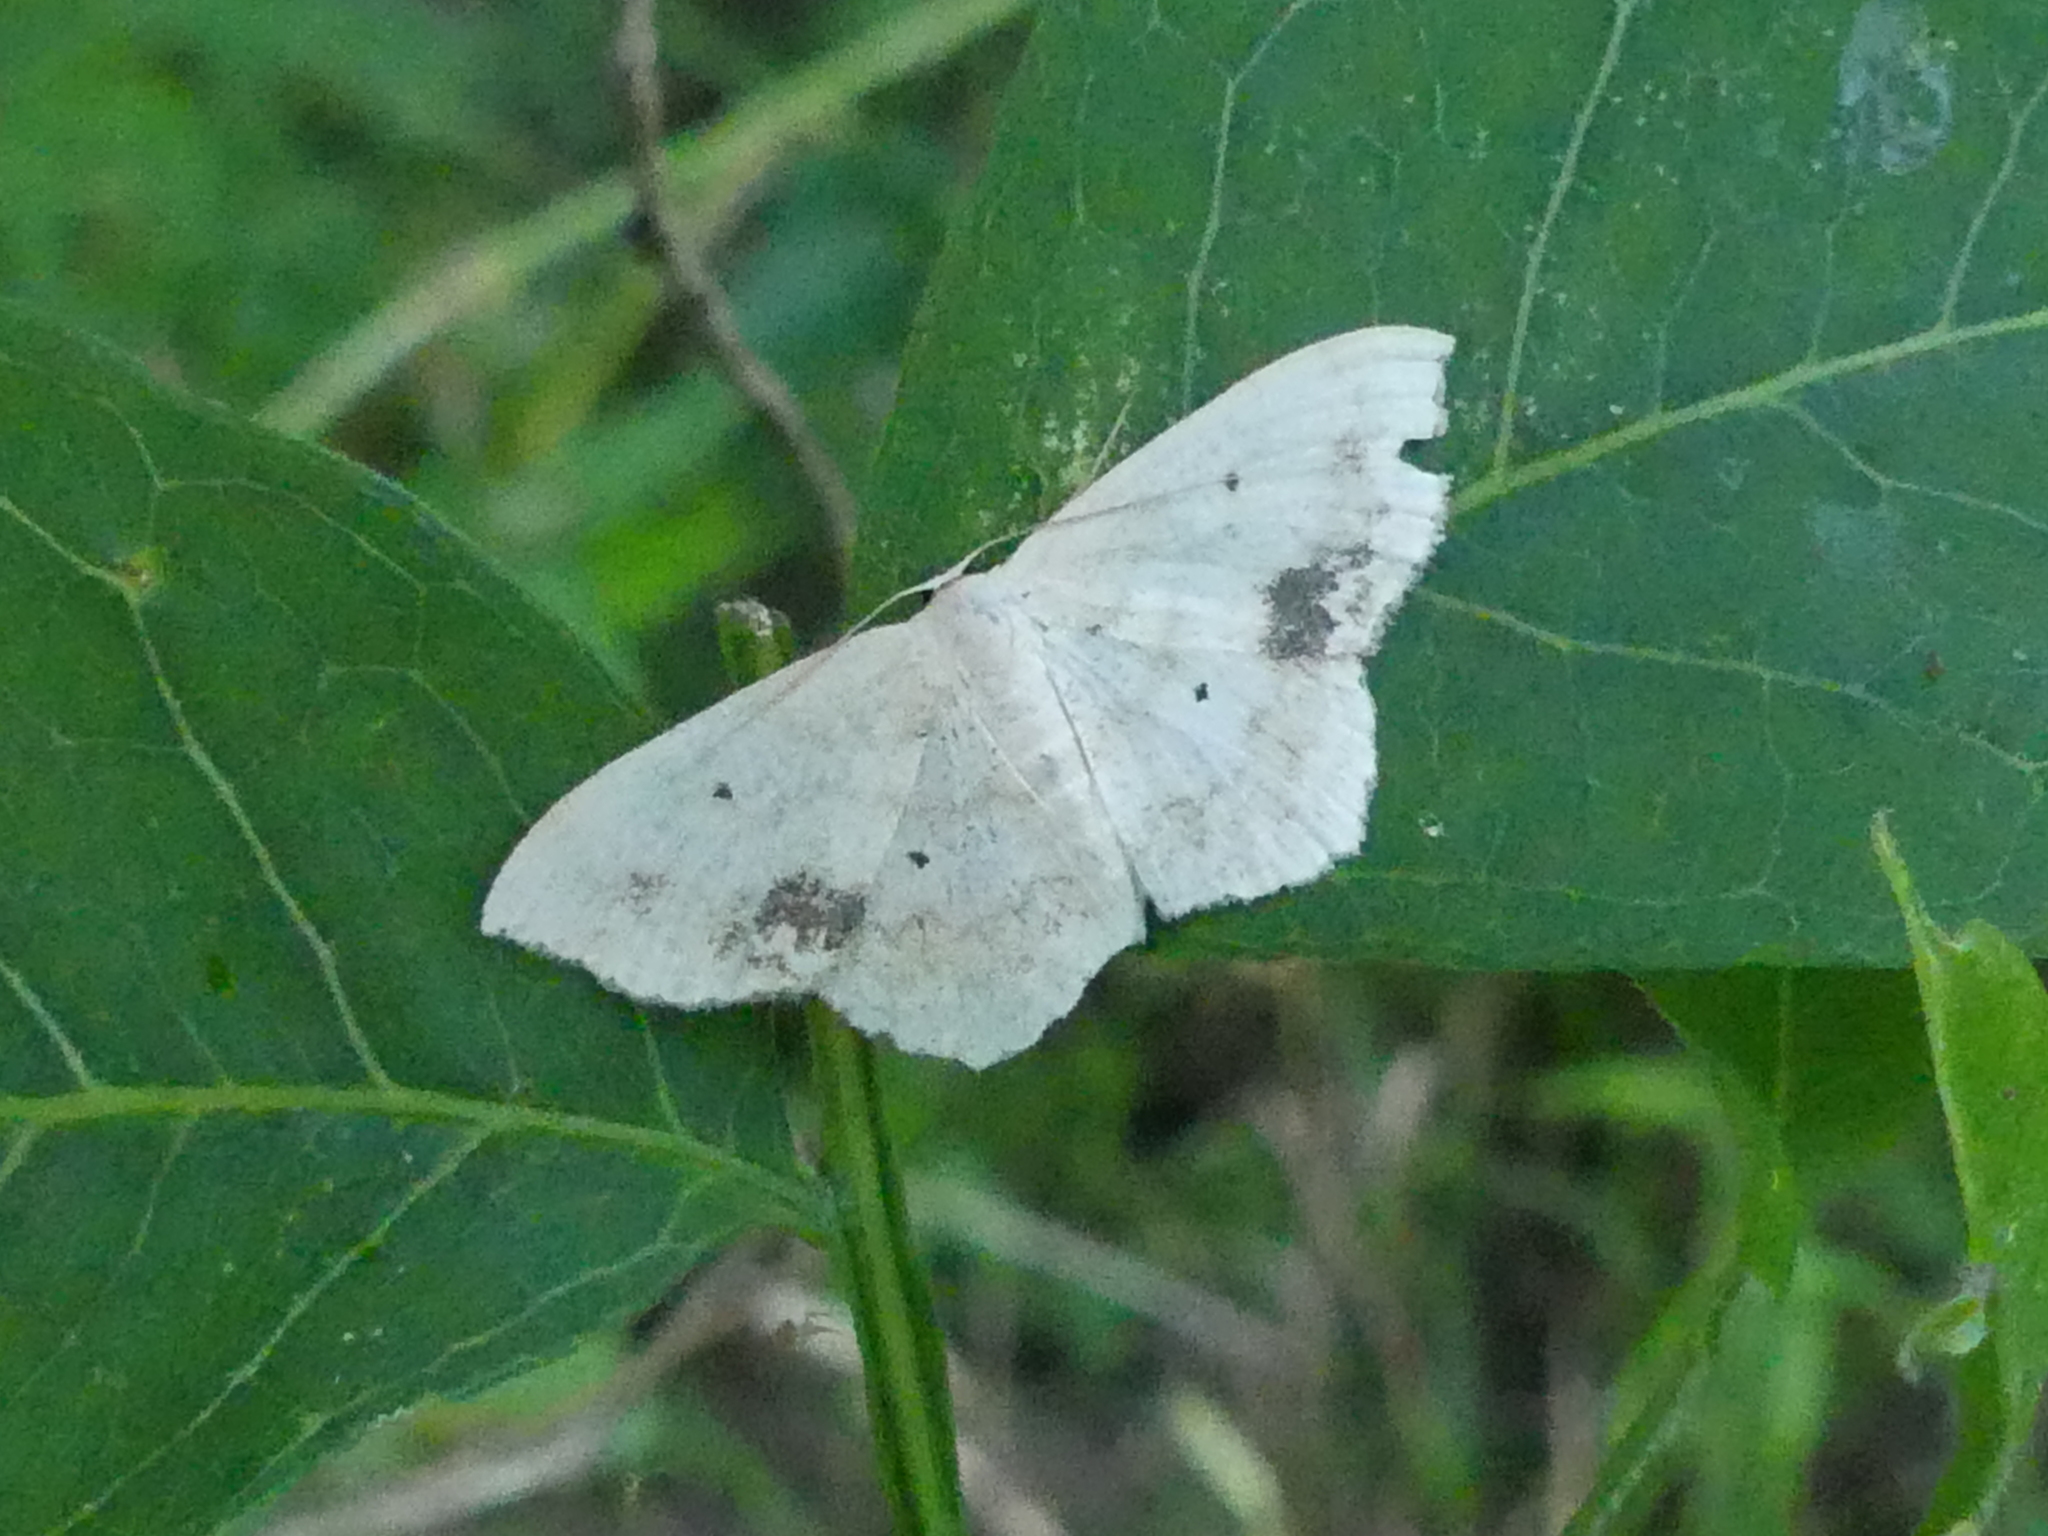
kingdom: Animalia
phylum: Arthropoda
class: Insecta
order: Lepidoptera
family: Geometridae
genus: Scopula
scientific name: Scopula limboundata
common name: Large lace border
